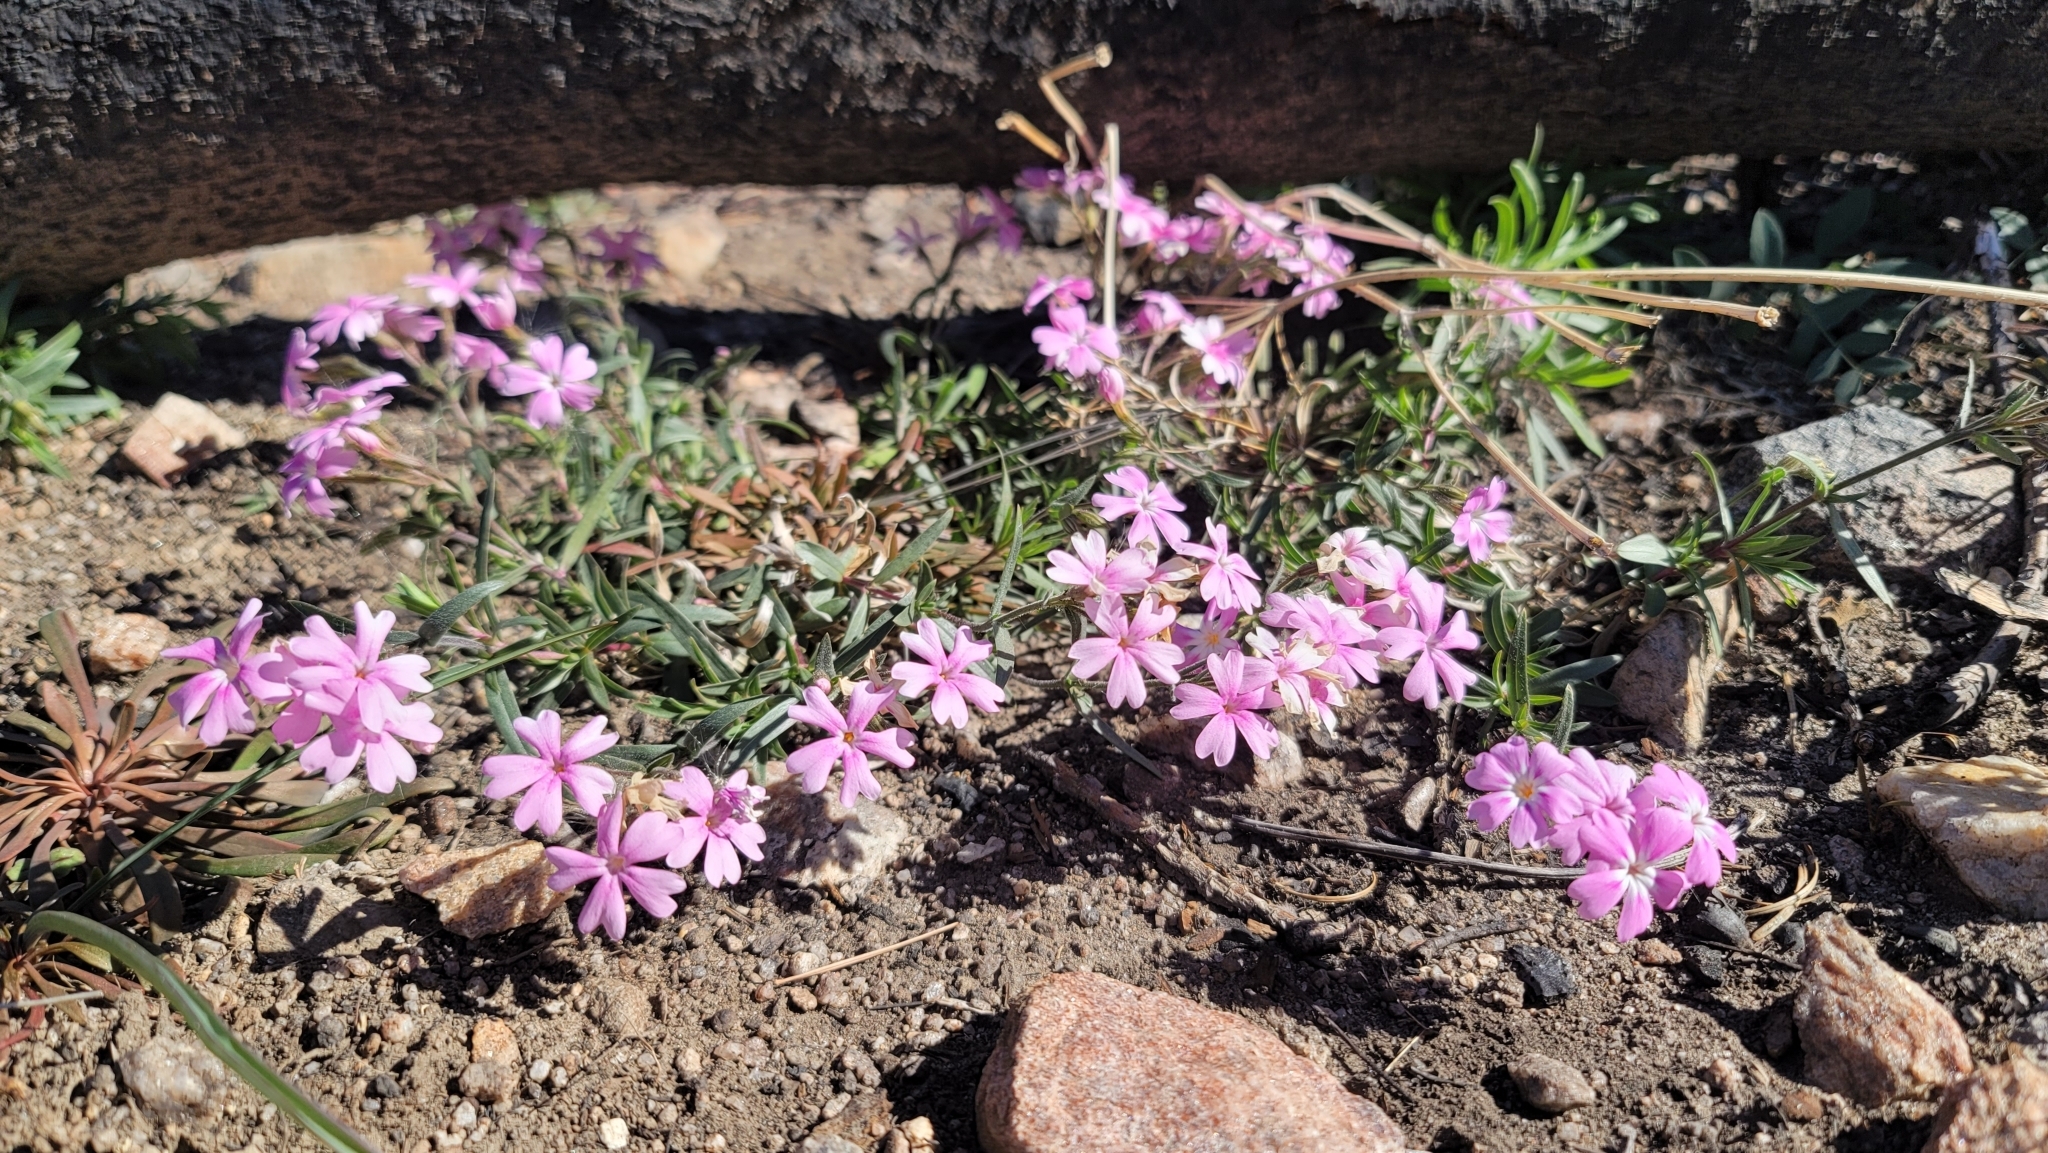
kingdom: Plantae
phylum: Tracheophyta
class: Magnoliopsida
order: Ericales
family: Polemoniaceae
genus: Phlox
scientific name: Phlox speciosa
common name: Bush phlox
